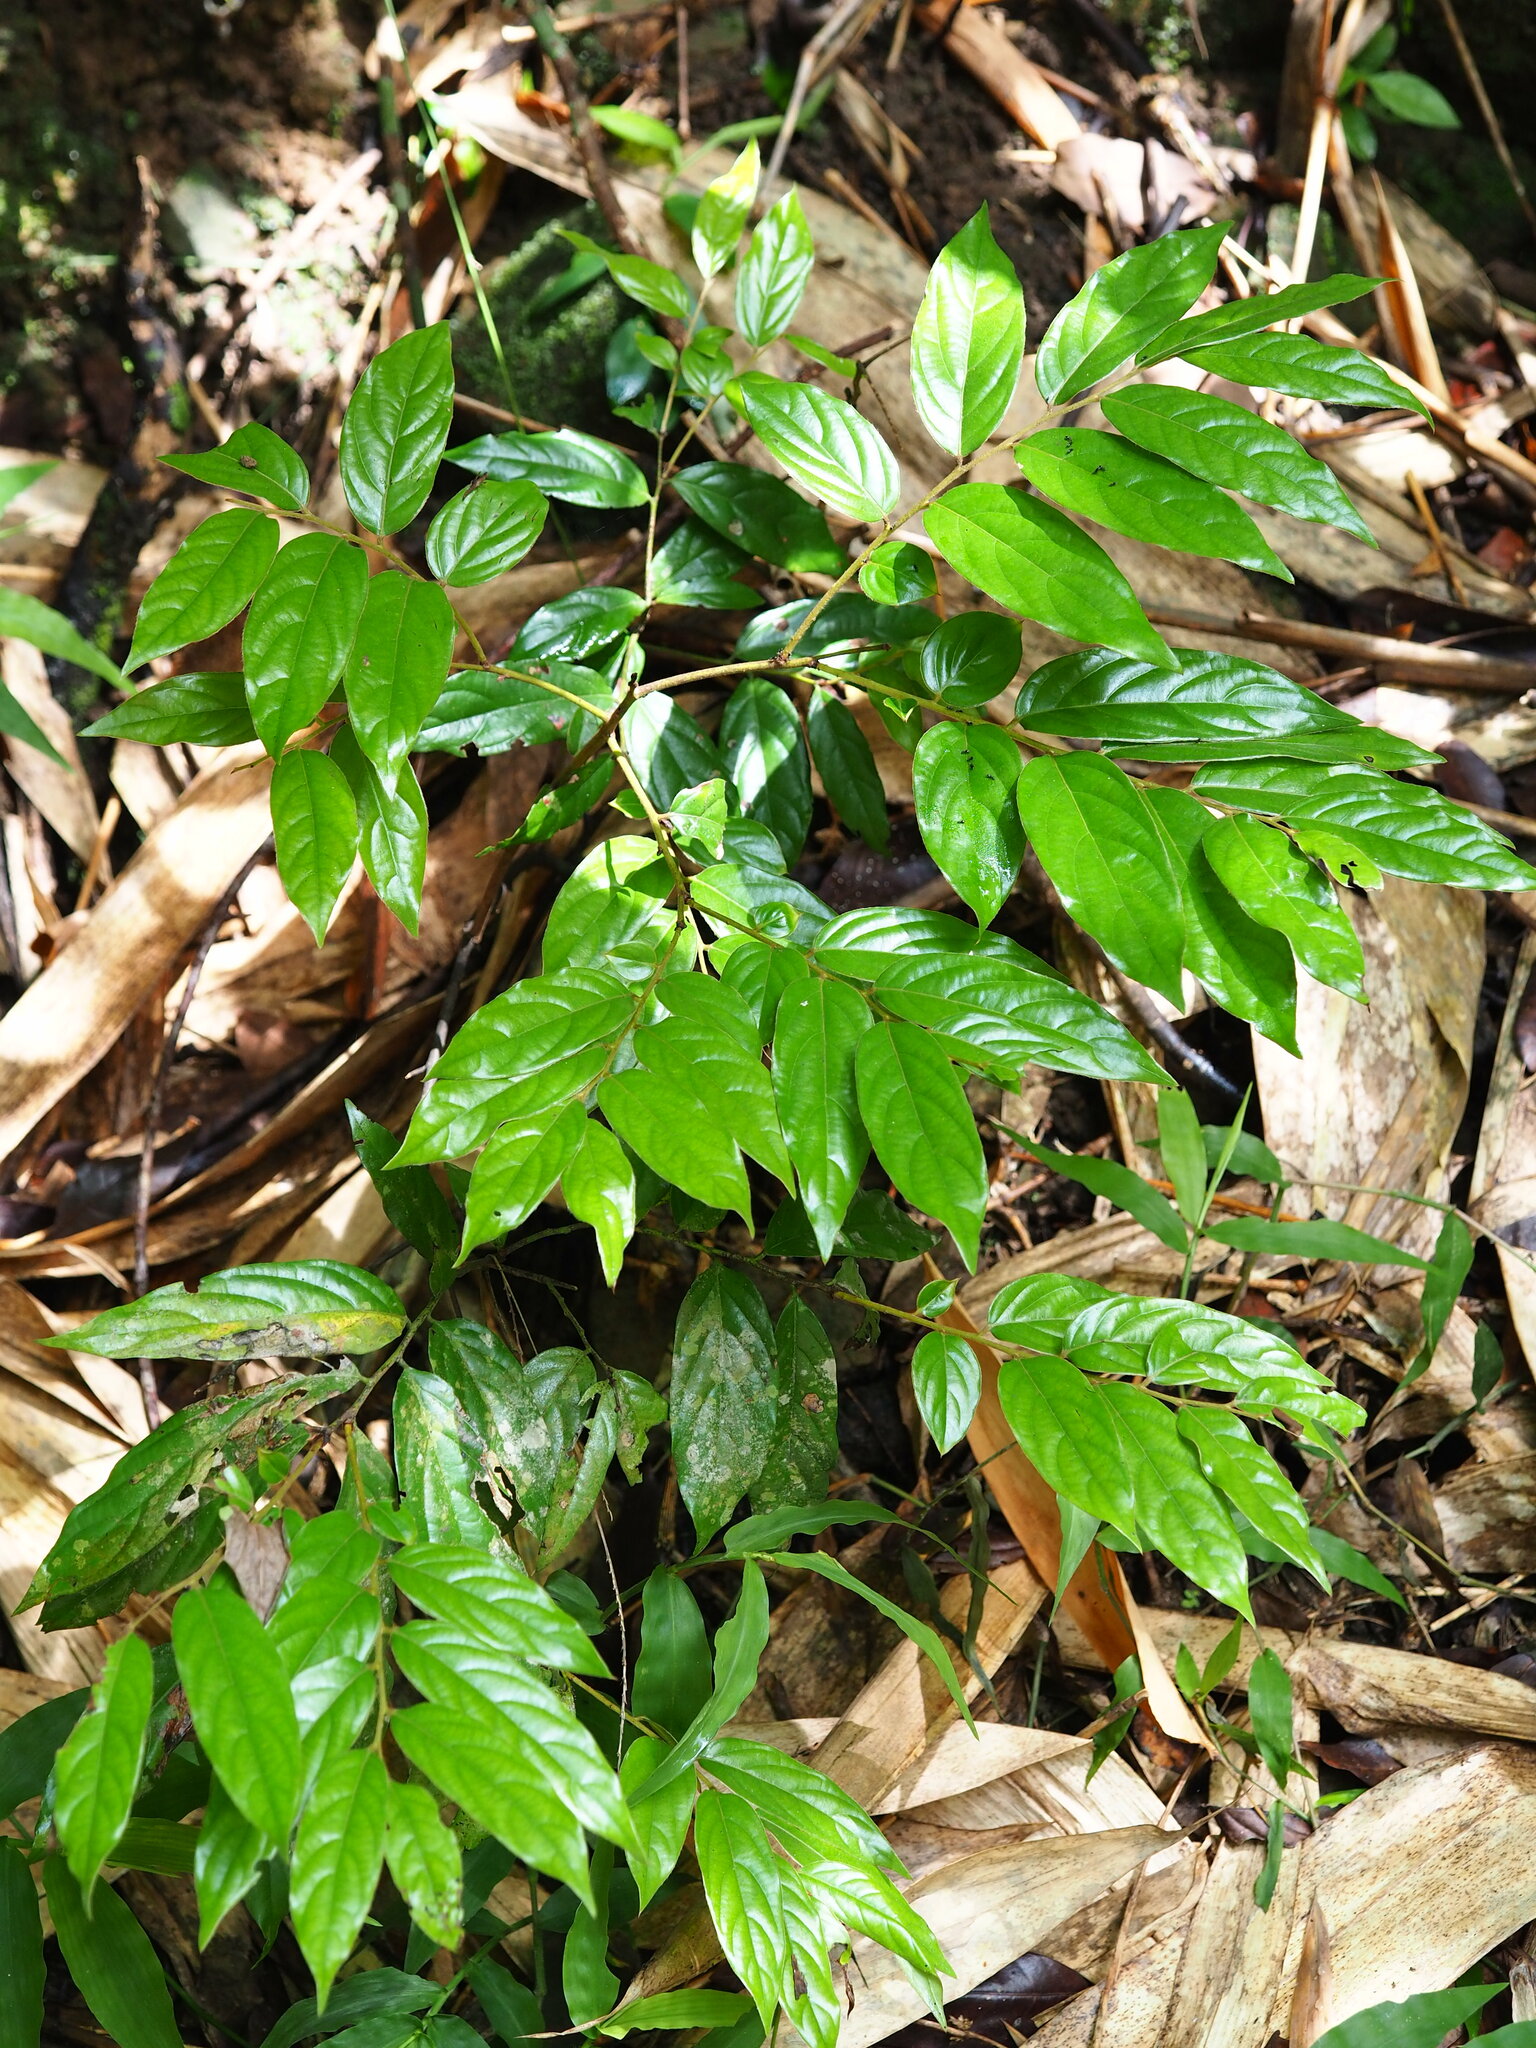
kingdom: Plantae
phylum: Tracheophyta
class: Magnoliopsida
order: Ericales
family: Ebenaceae
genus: Diospyros
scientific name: Diospyros eriantha
